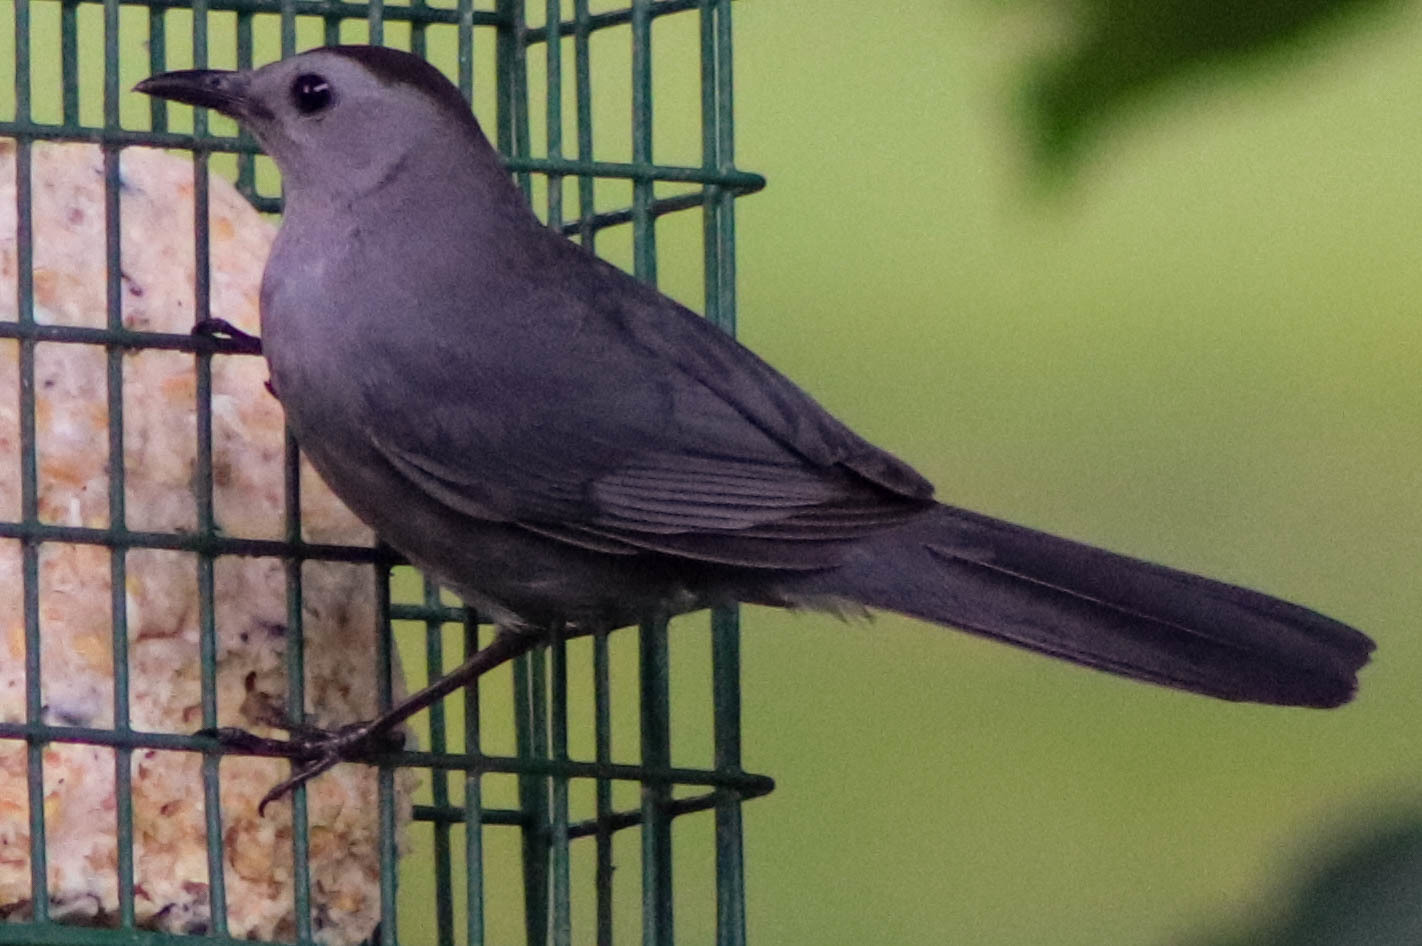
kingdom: Animalia
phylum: Chordata
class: Aves
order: Passeriformes
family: Mimidae
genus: Dumetella
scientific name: Dumetella carolinensis
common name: Gray catbird
